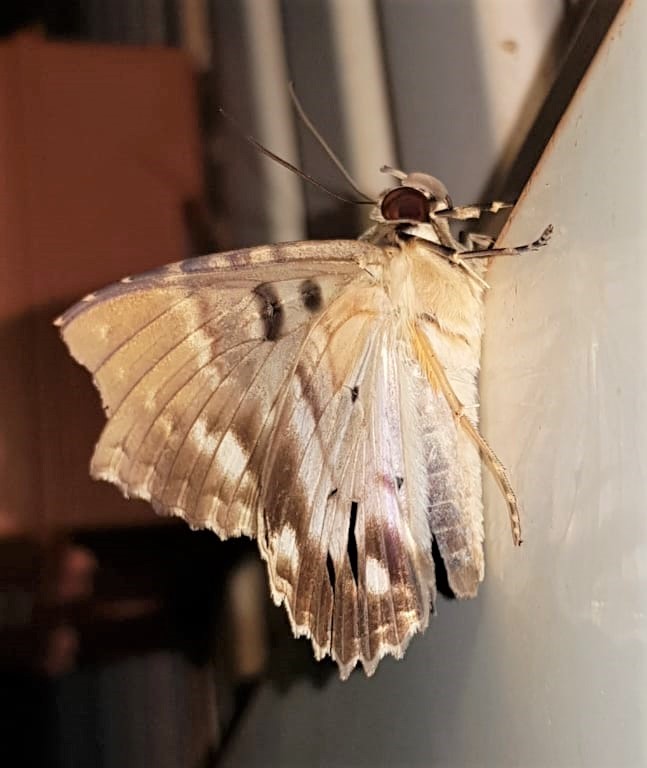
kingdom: Animalia
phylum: Arthropoda
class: Insecta
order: Lepidoptera
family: Erebidae
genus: Feigeria
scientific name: Feigeria scops
